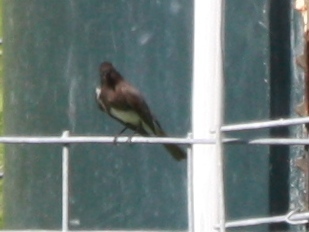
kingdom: Animalia
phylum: Chordata
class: Aves
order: Passeriformes
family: Tyrannidae
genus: Sayornis
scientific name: Sayornis nigricans
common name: Black phoebe
